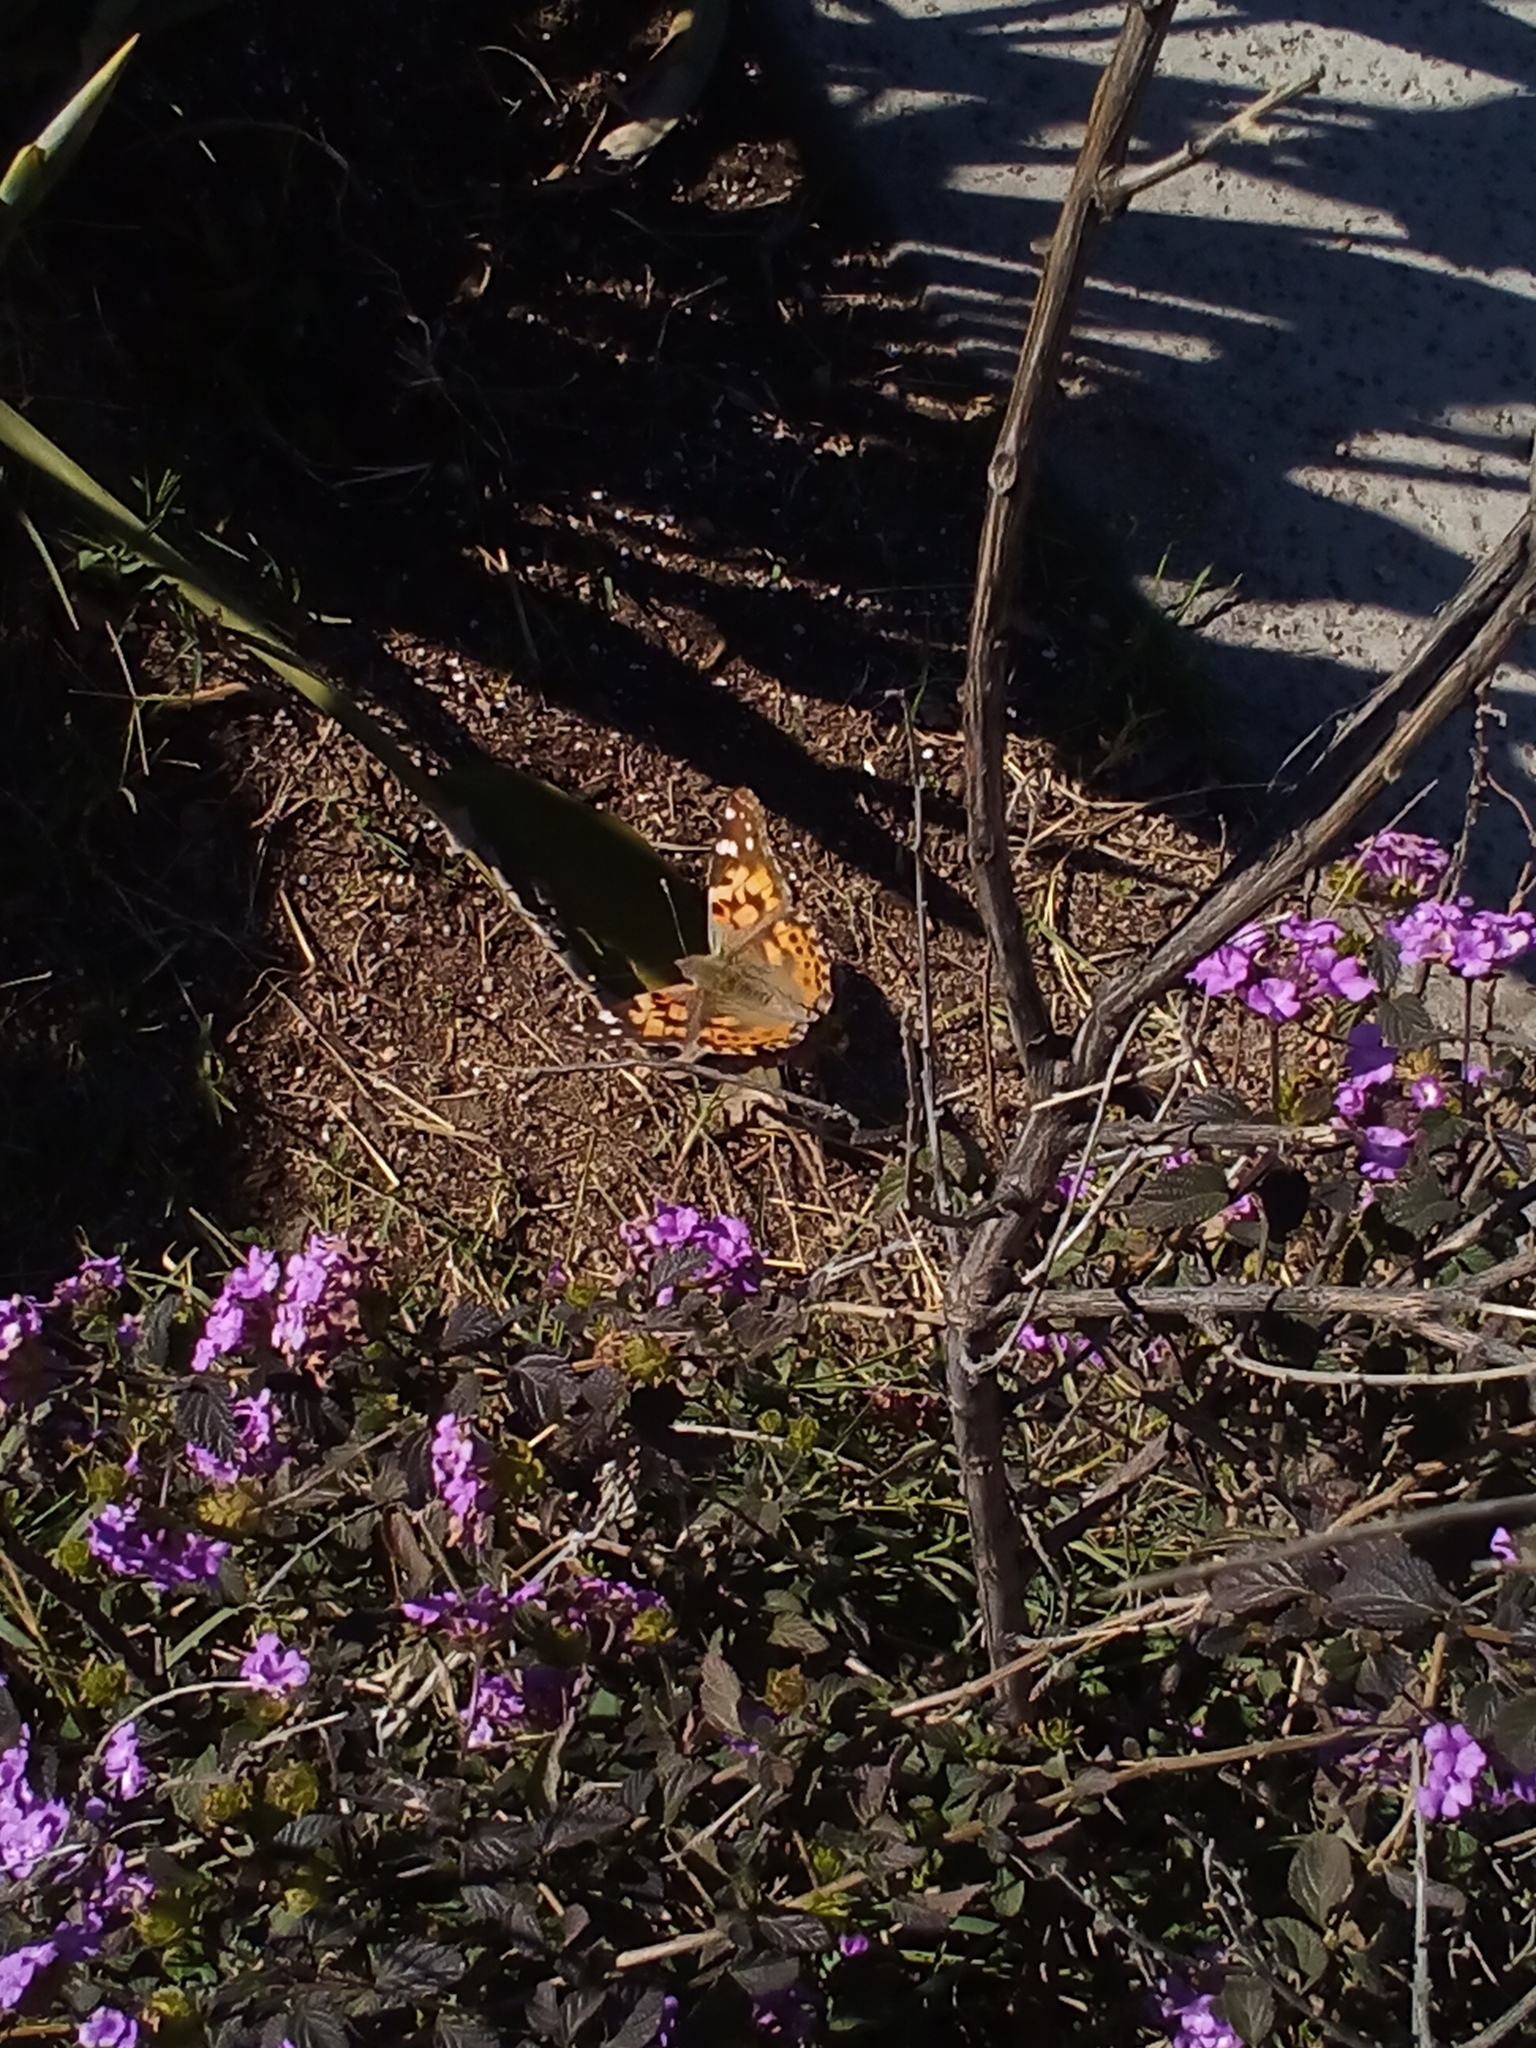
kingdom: Animalia
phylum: Arthropoda
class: Insecta
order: Lepidoptera
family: Nymphalidae
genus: Vanessa
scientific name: Vanessa cardui
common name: Painted lady
